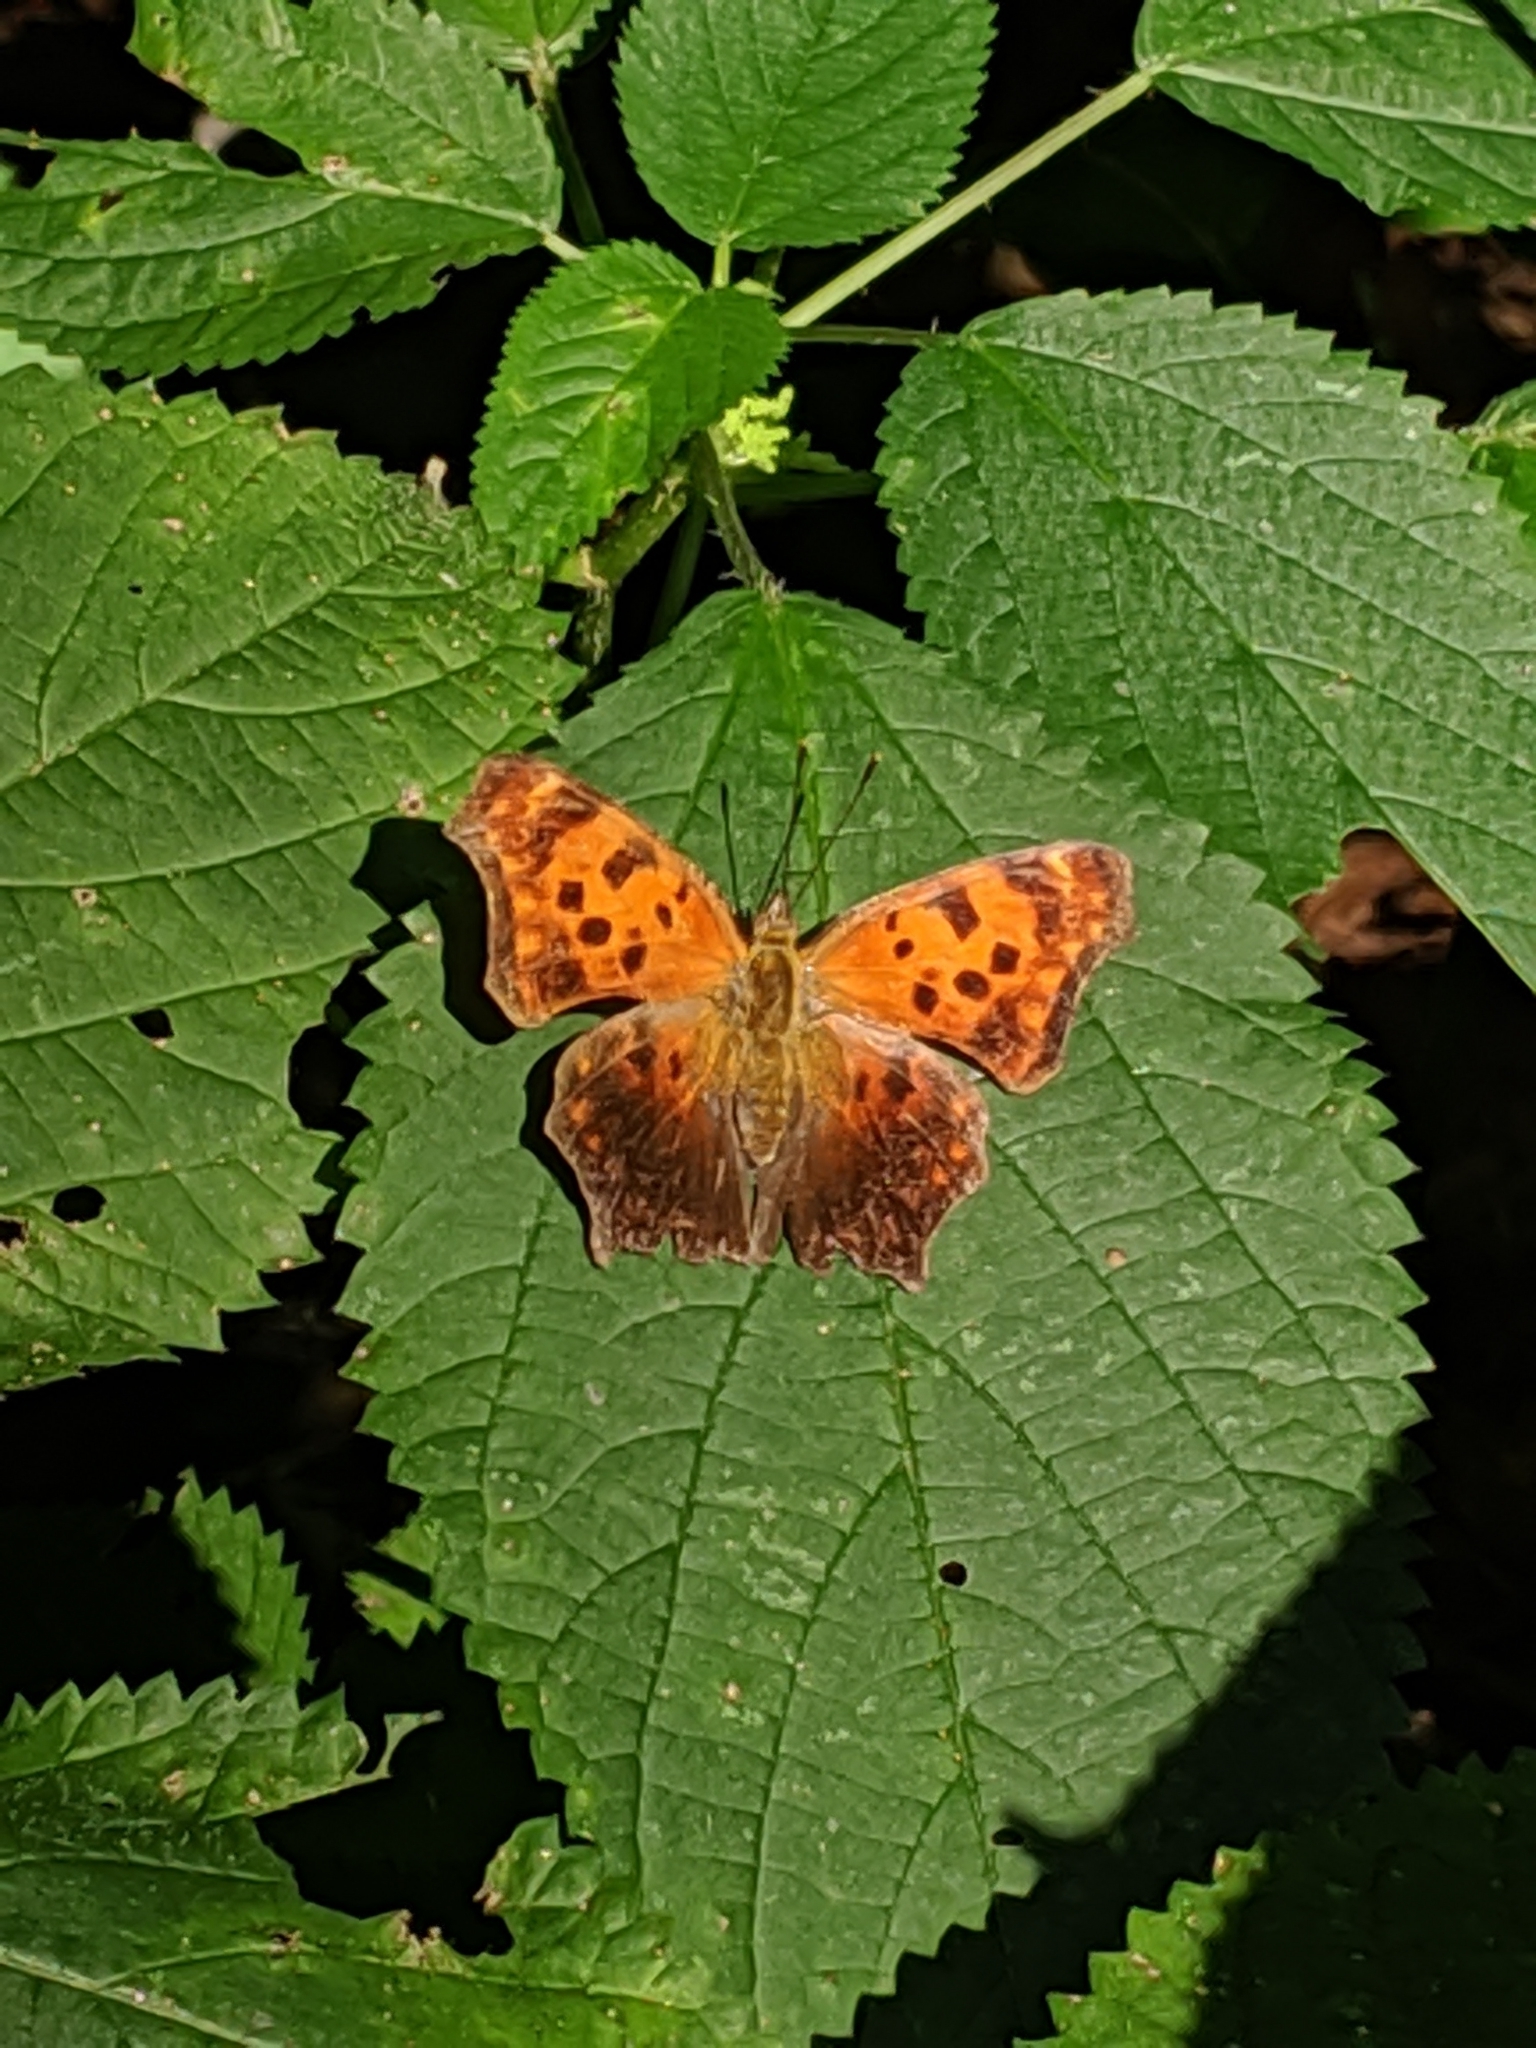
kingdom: Animalia
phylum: Arthropoda
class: Insecta
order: Lepidoptera
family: Nymphalidae
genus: Polygonia
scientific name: Polygonia comma
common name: Eastern comma
